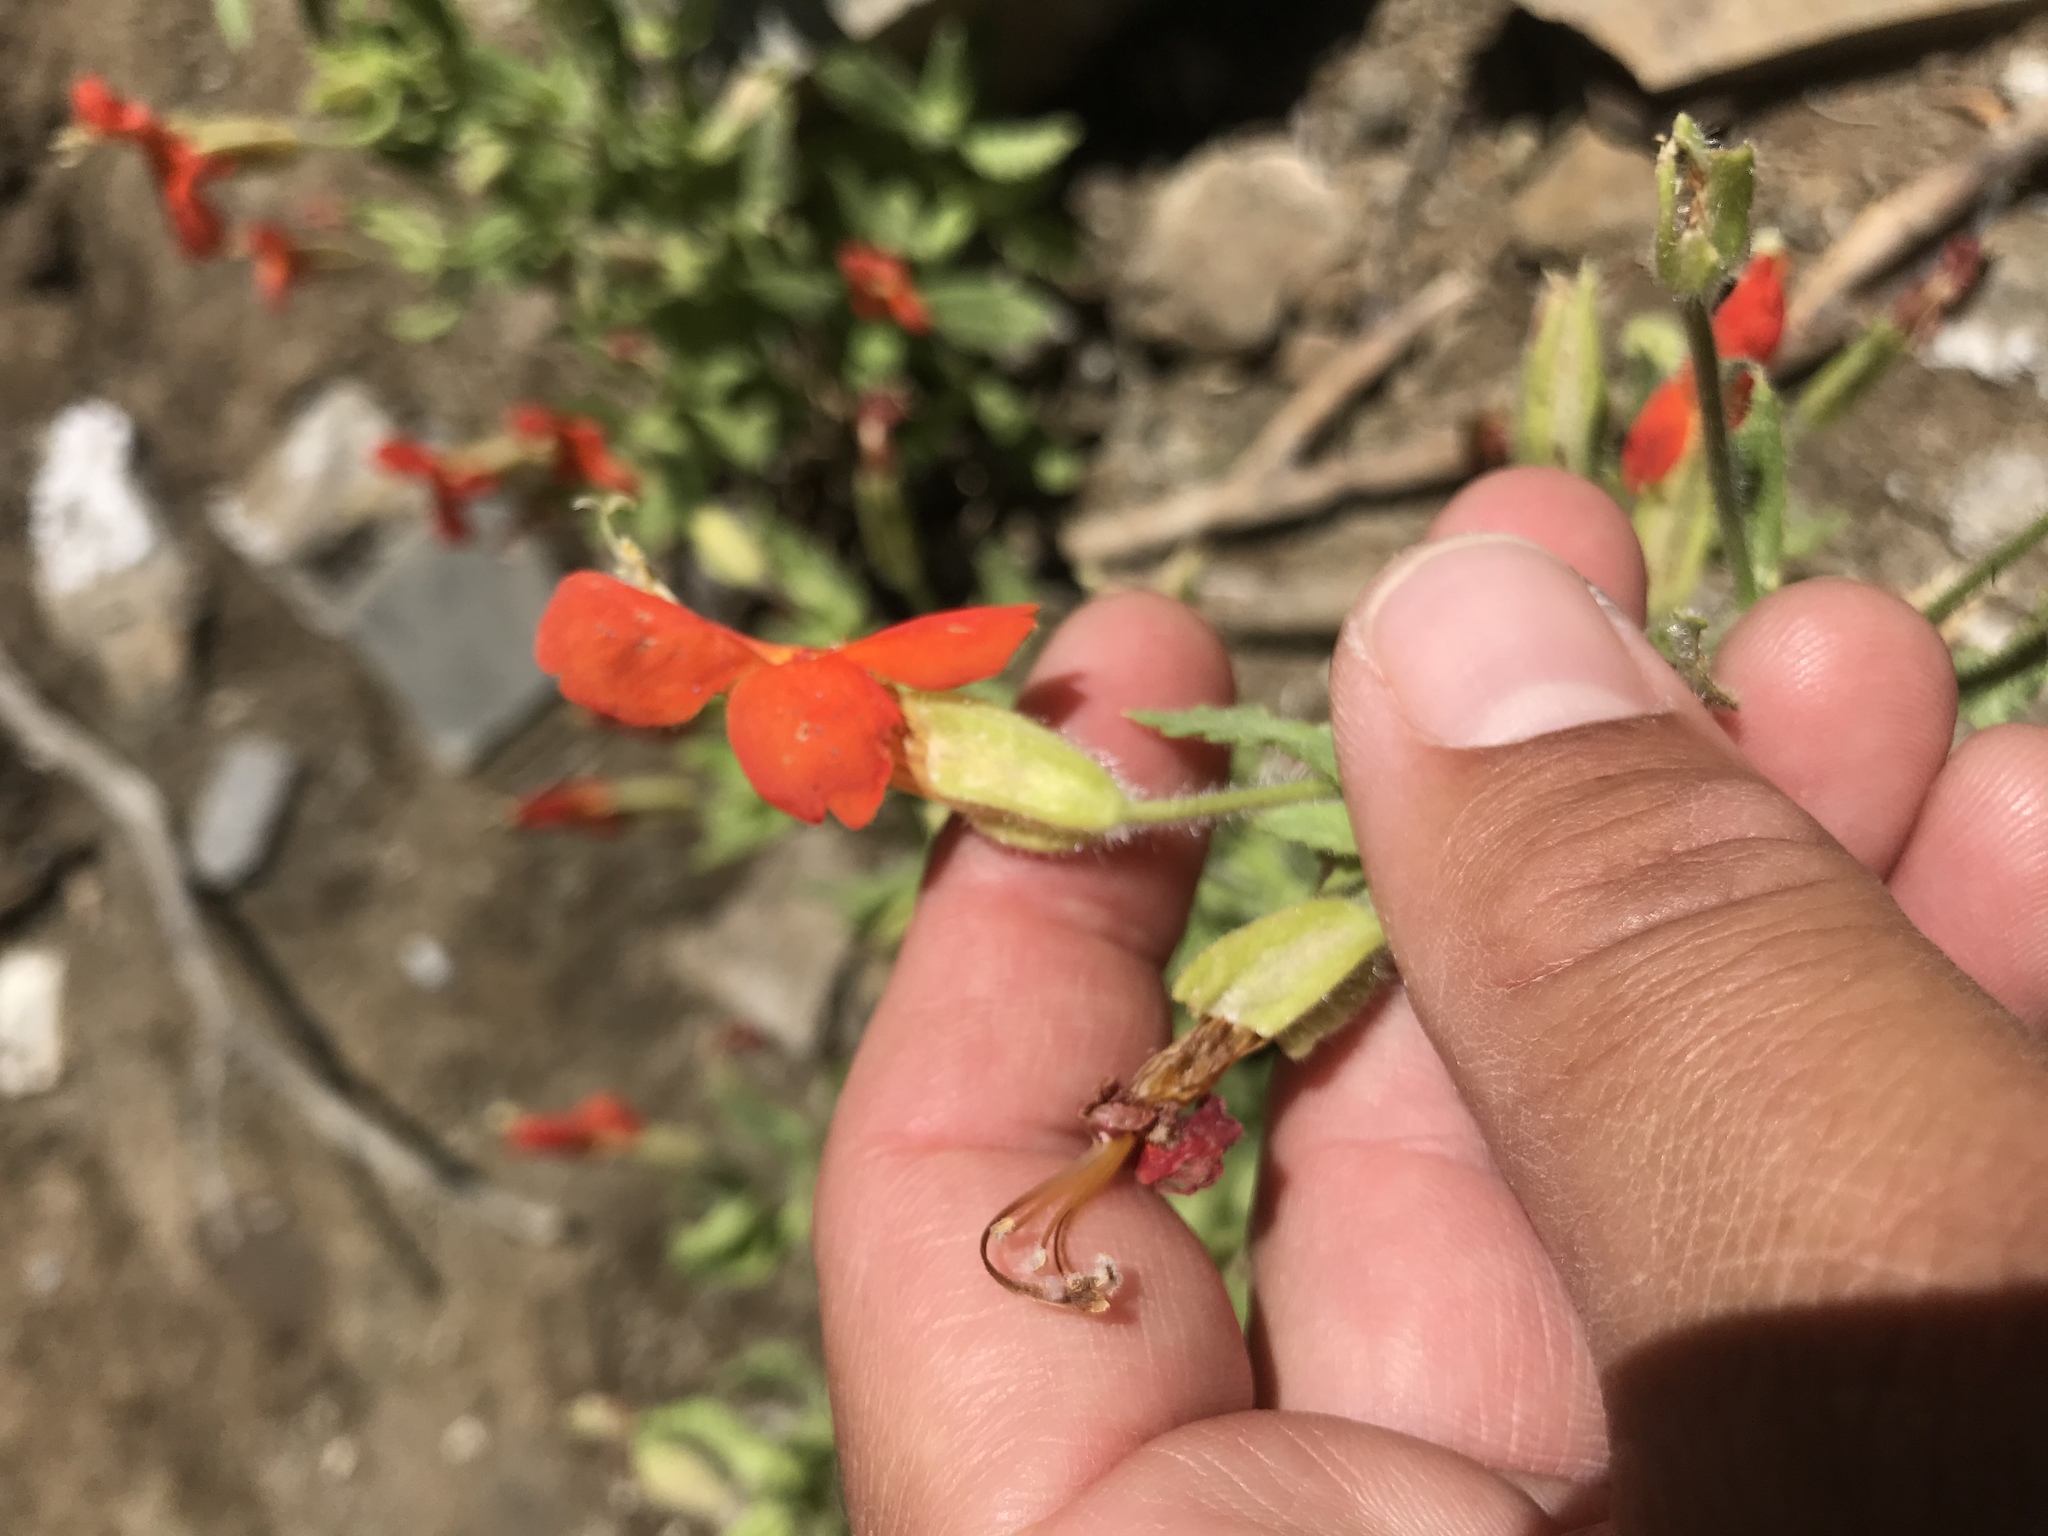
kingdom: Plantae
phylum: Tracheophyta
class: Magnoliopsida
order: Lamiales
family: Phrymaceae
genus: Erythranthe
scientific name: Erythranthe cardinalis
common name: Scarlet monkey-flower
